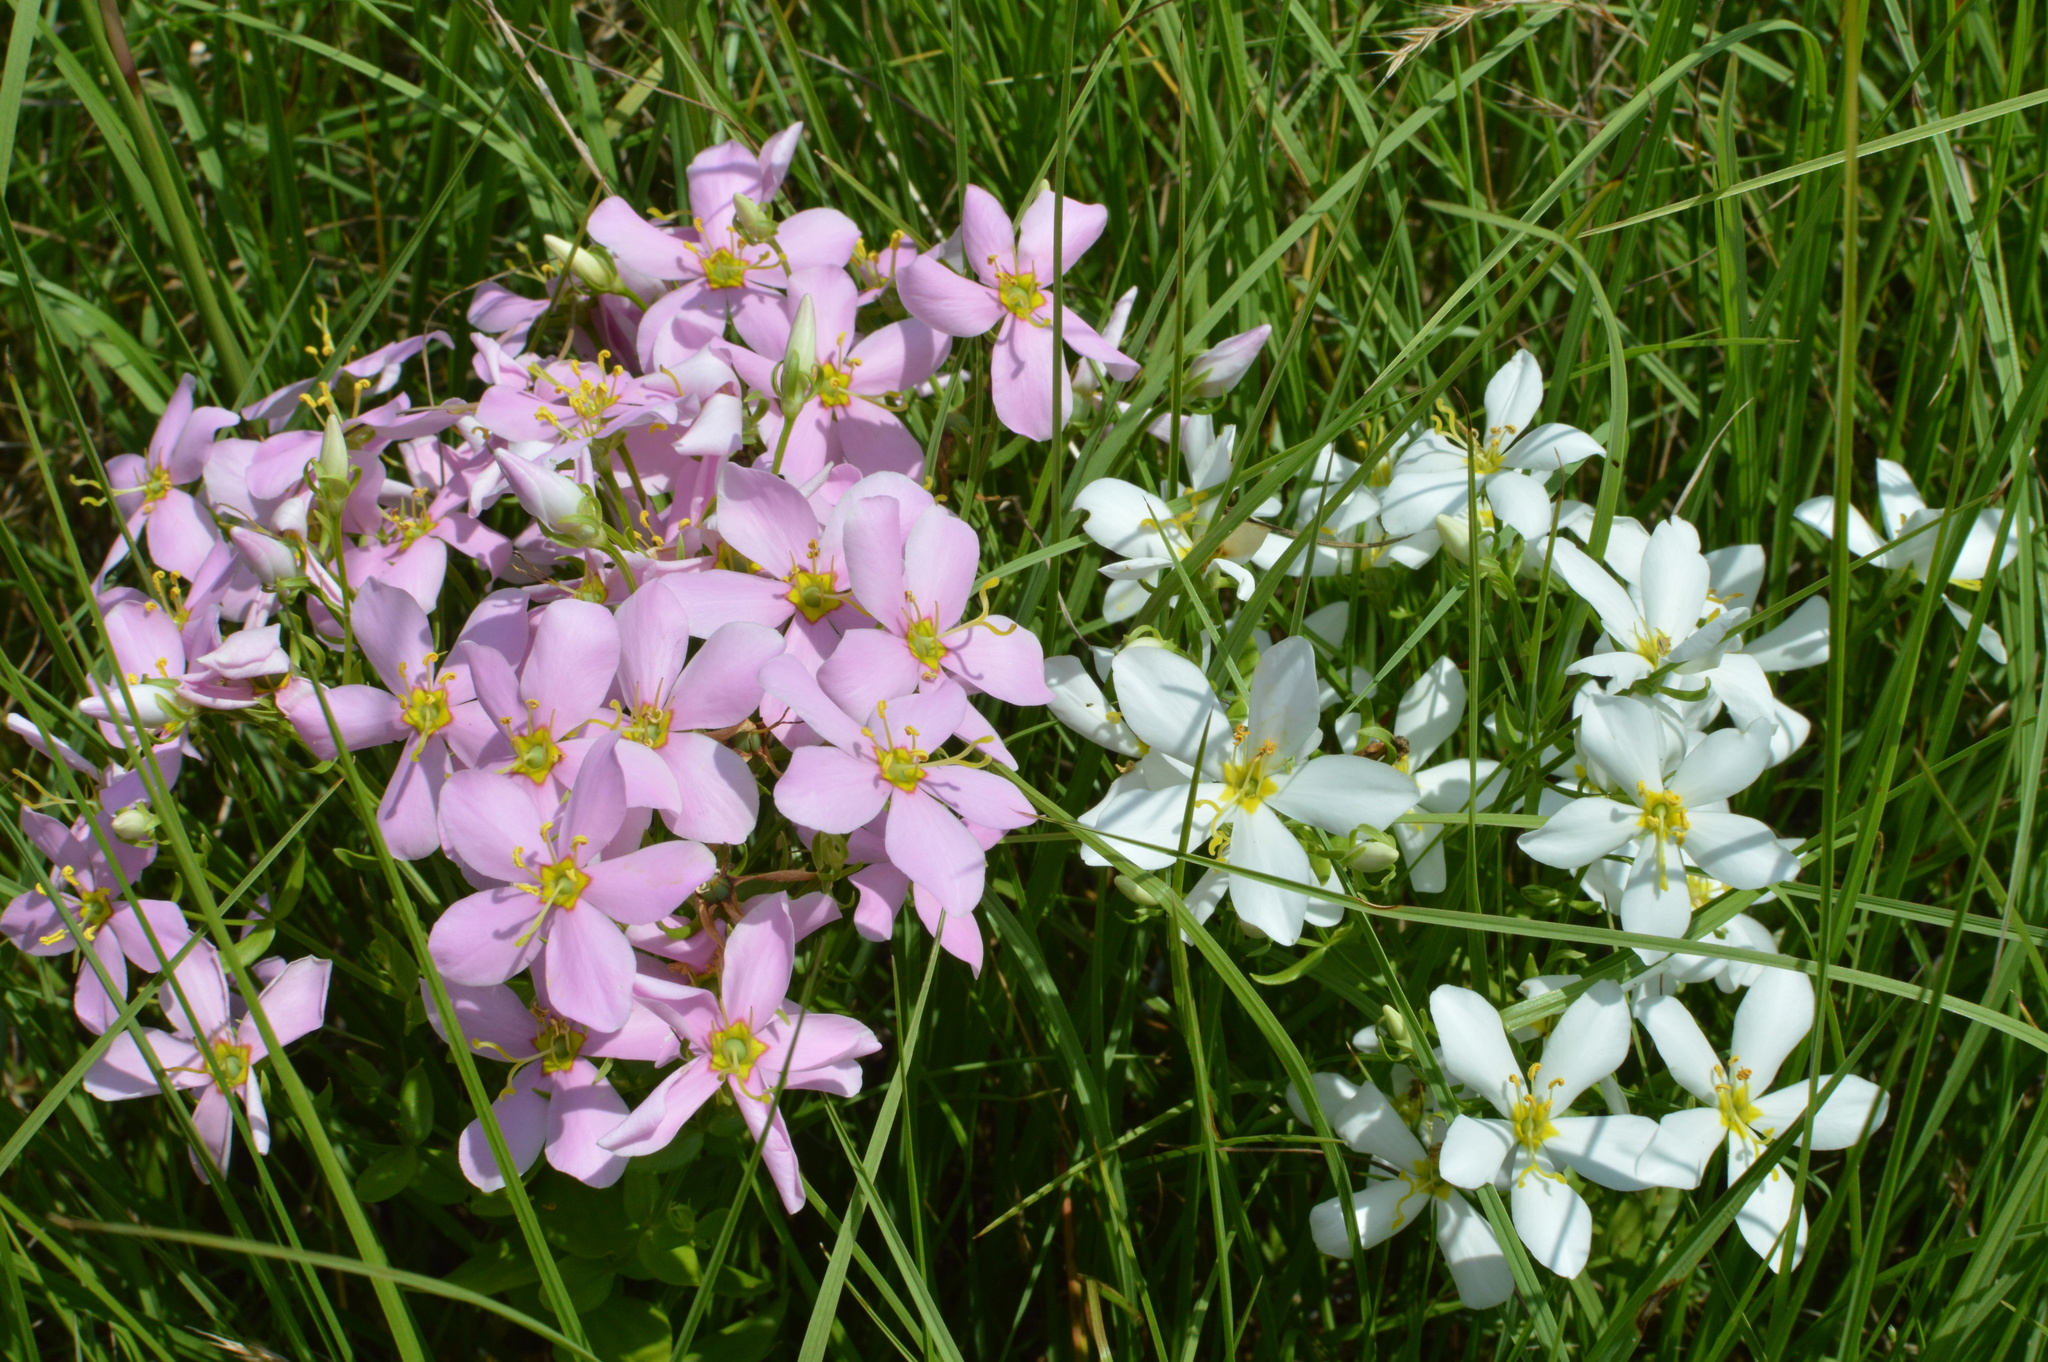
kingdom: Plantae
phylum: Tracheophyta
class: Magnoliopsida
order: Gentianales
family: Gentianaceae
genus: Sabatia
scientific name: Sabatia angularis
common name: Rose-pink
